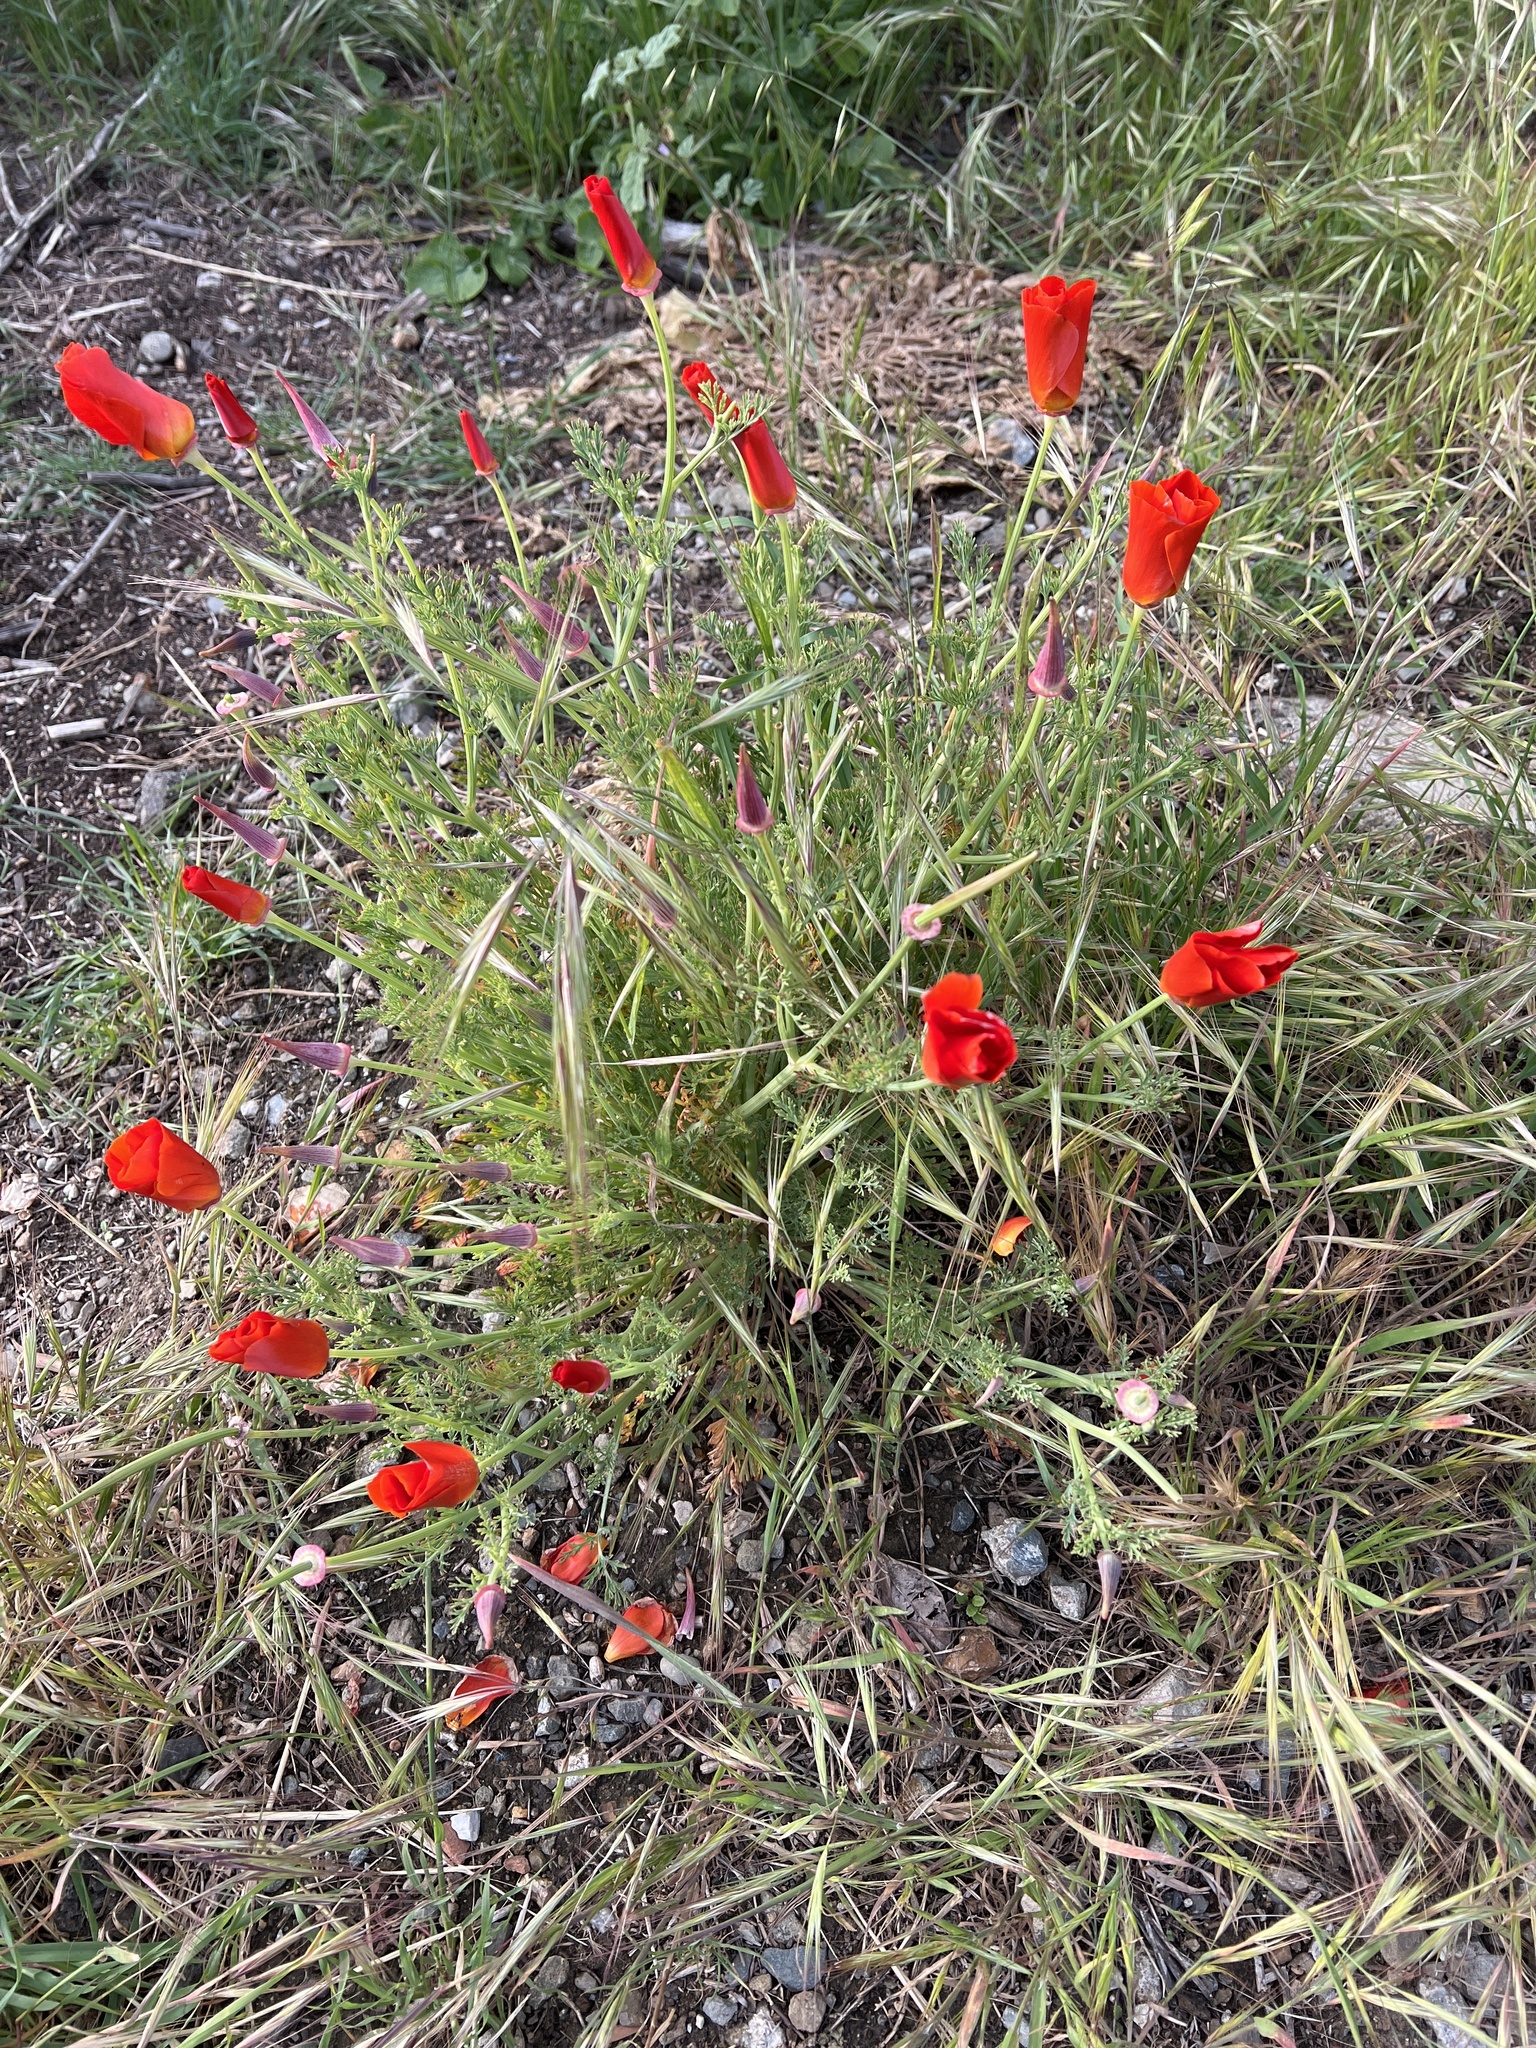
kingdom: Plantae
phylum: Tracheophyta
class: Magnoliopsida
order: Ranunculales
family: Papaveraceae
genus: Eschscholzia
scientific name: Eschscholzia californica
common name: California poppy
